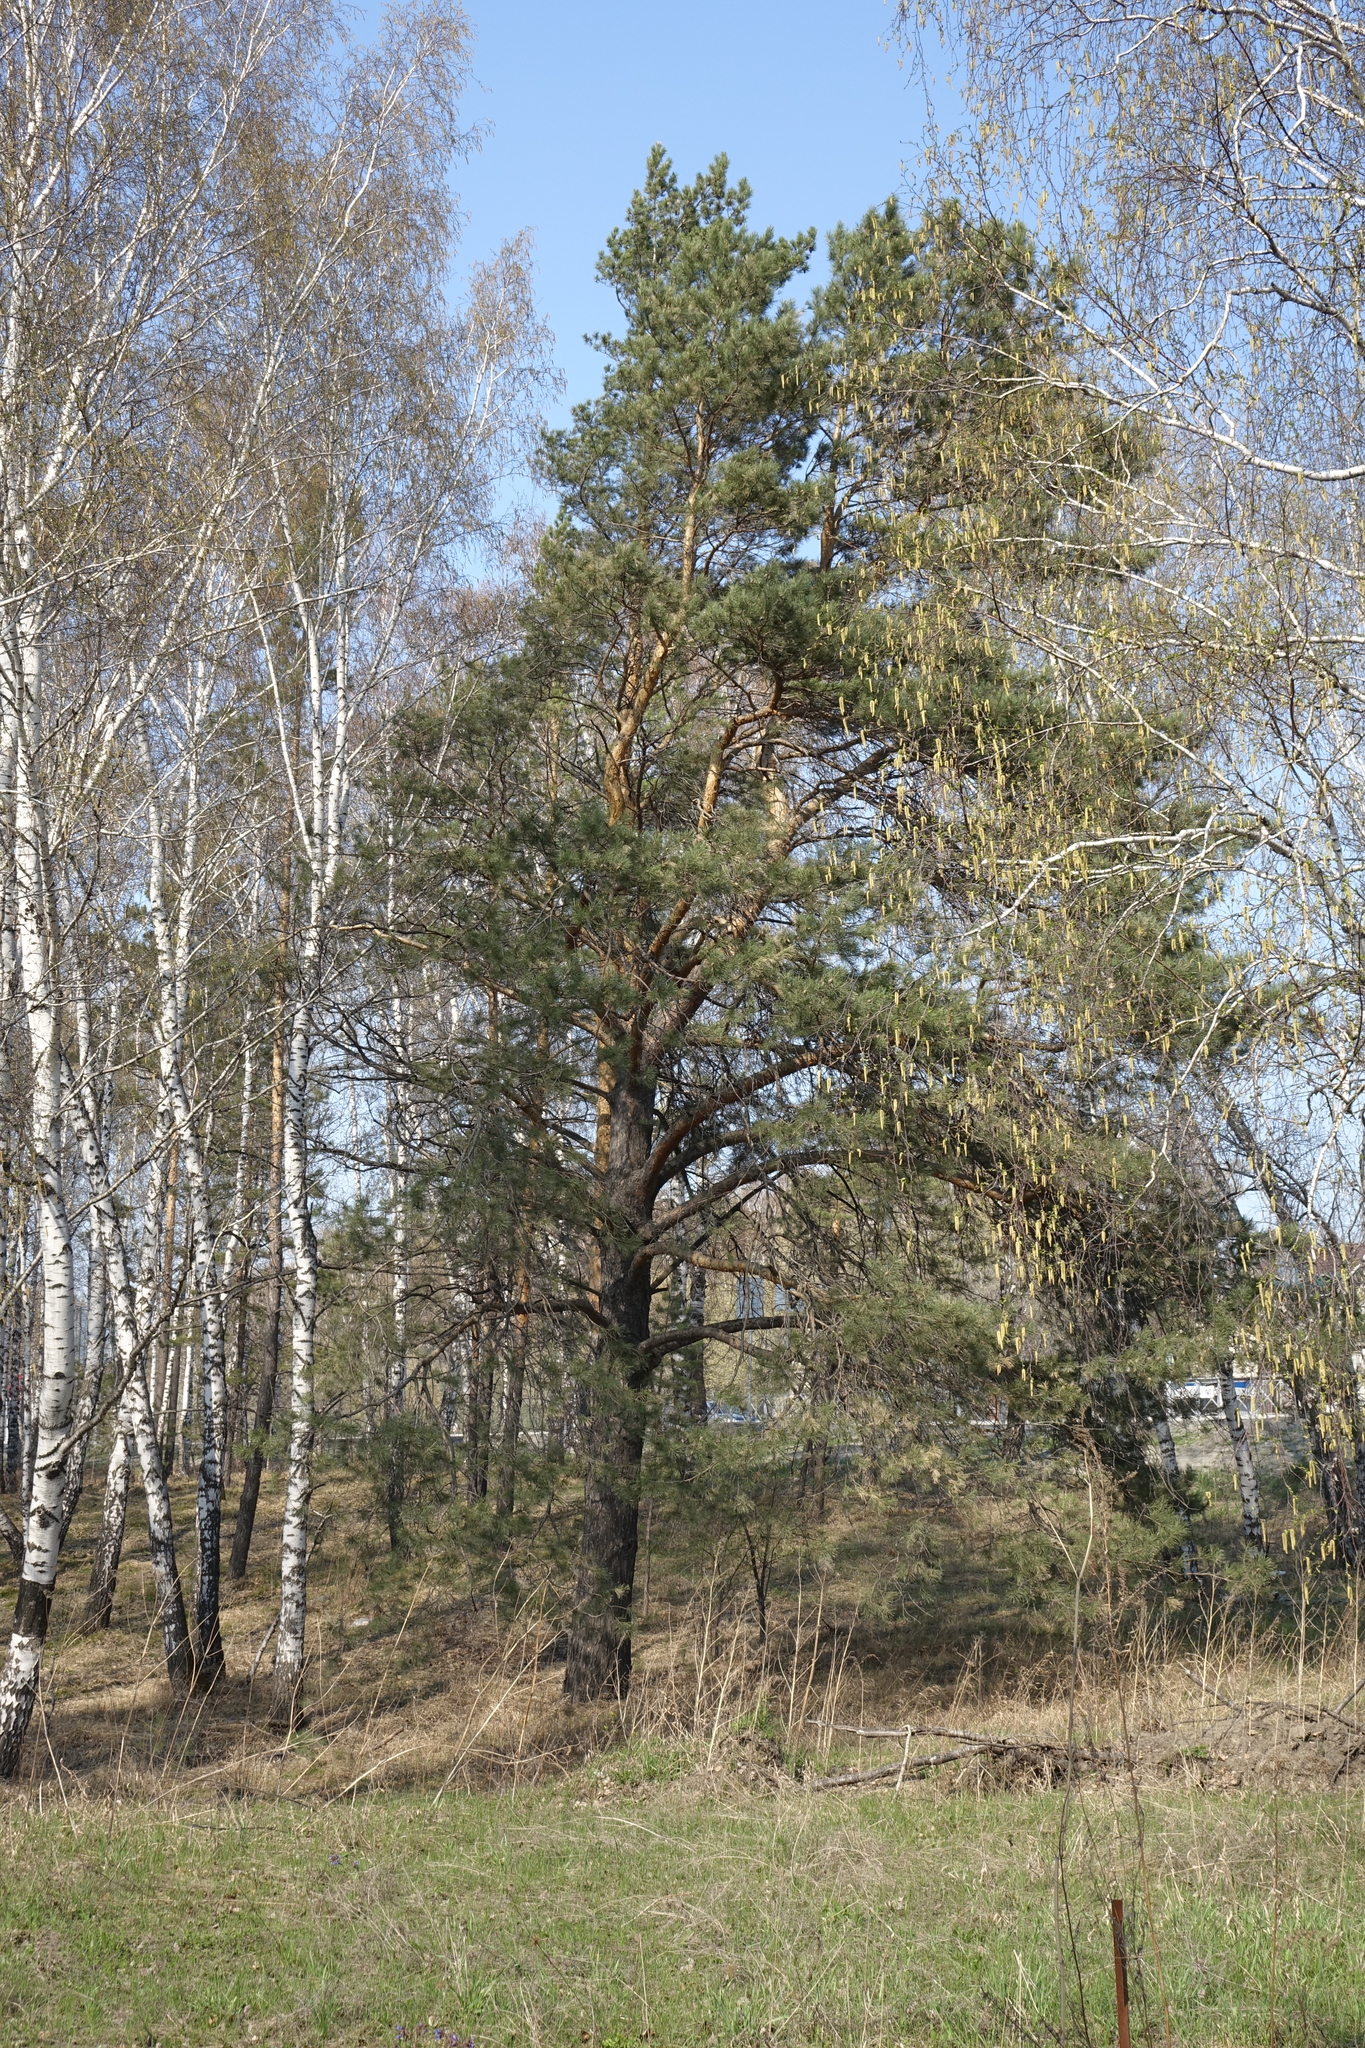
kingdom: Plantae
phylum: Tracheophyta
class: Pinopsida
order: Pinales
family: Pinaceae
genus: Pinus
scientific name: Pinus sylvestris
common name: Scots pine
